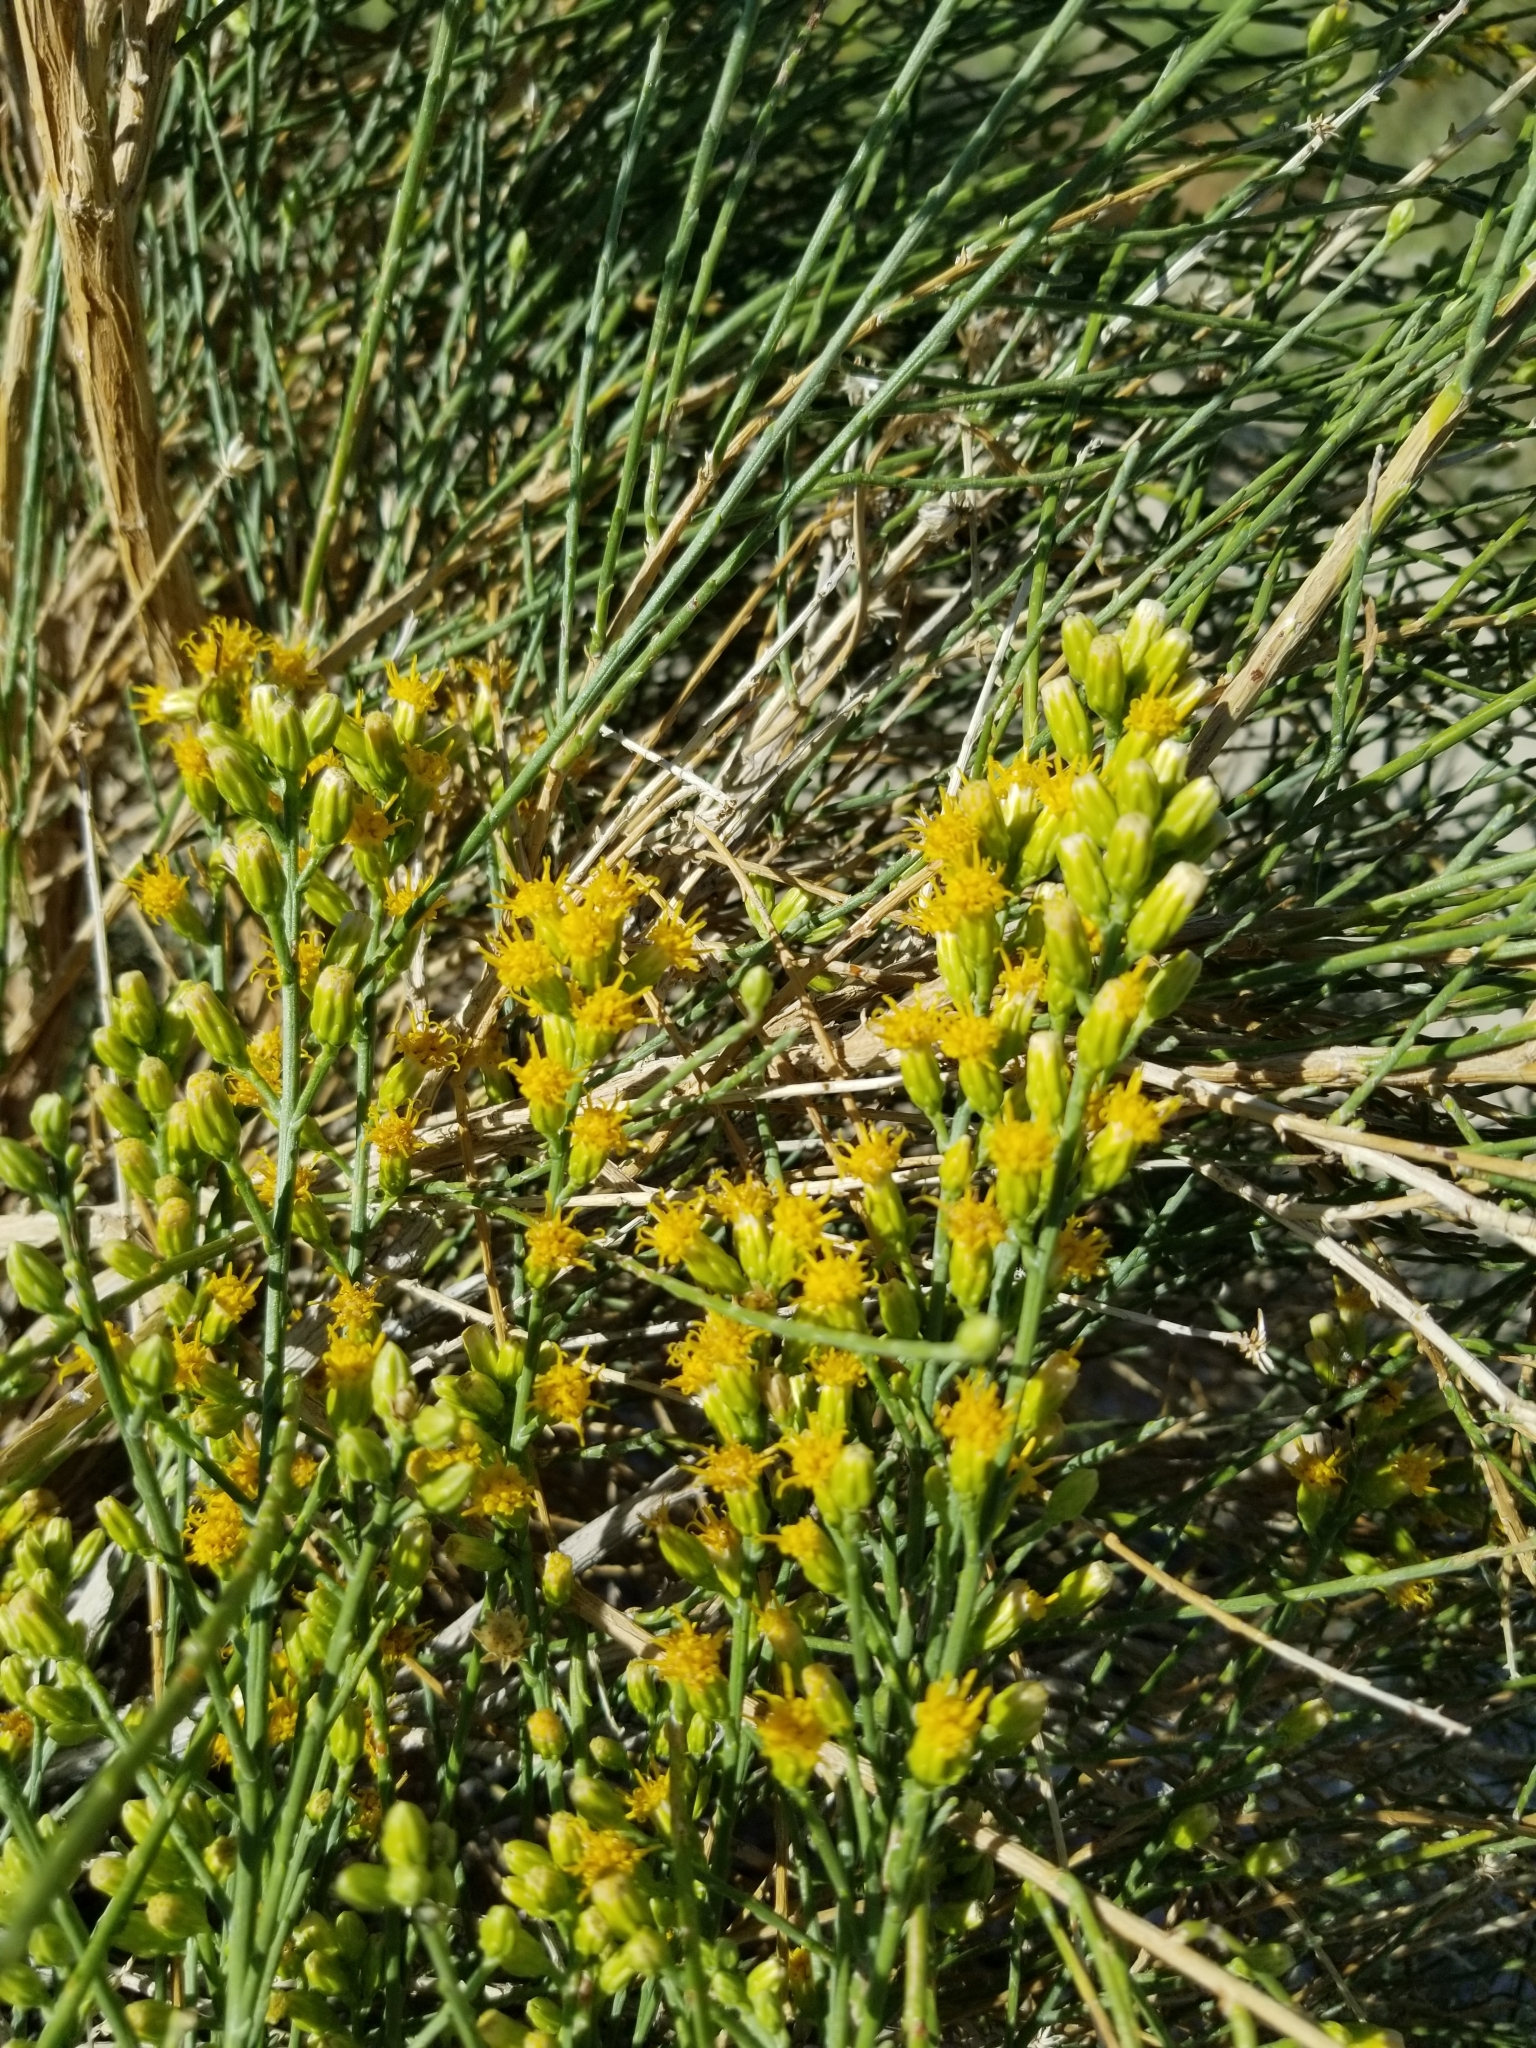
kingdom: Plantae
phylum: Tracheophyta
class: Magnoliopsida
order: Asterales
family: Asteraceae
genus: Lepidospartum
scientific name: Lepidospartum squamatum
